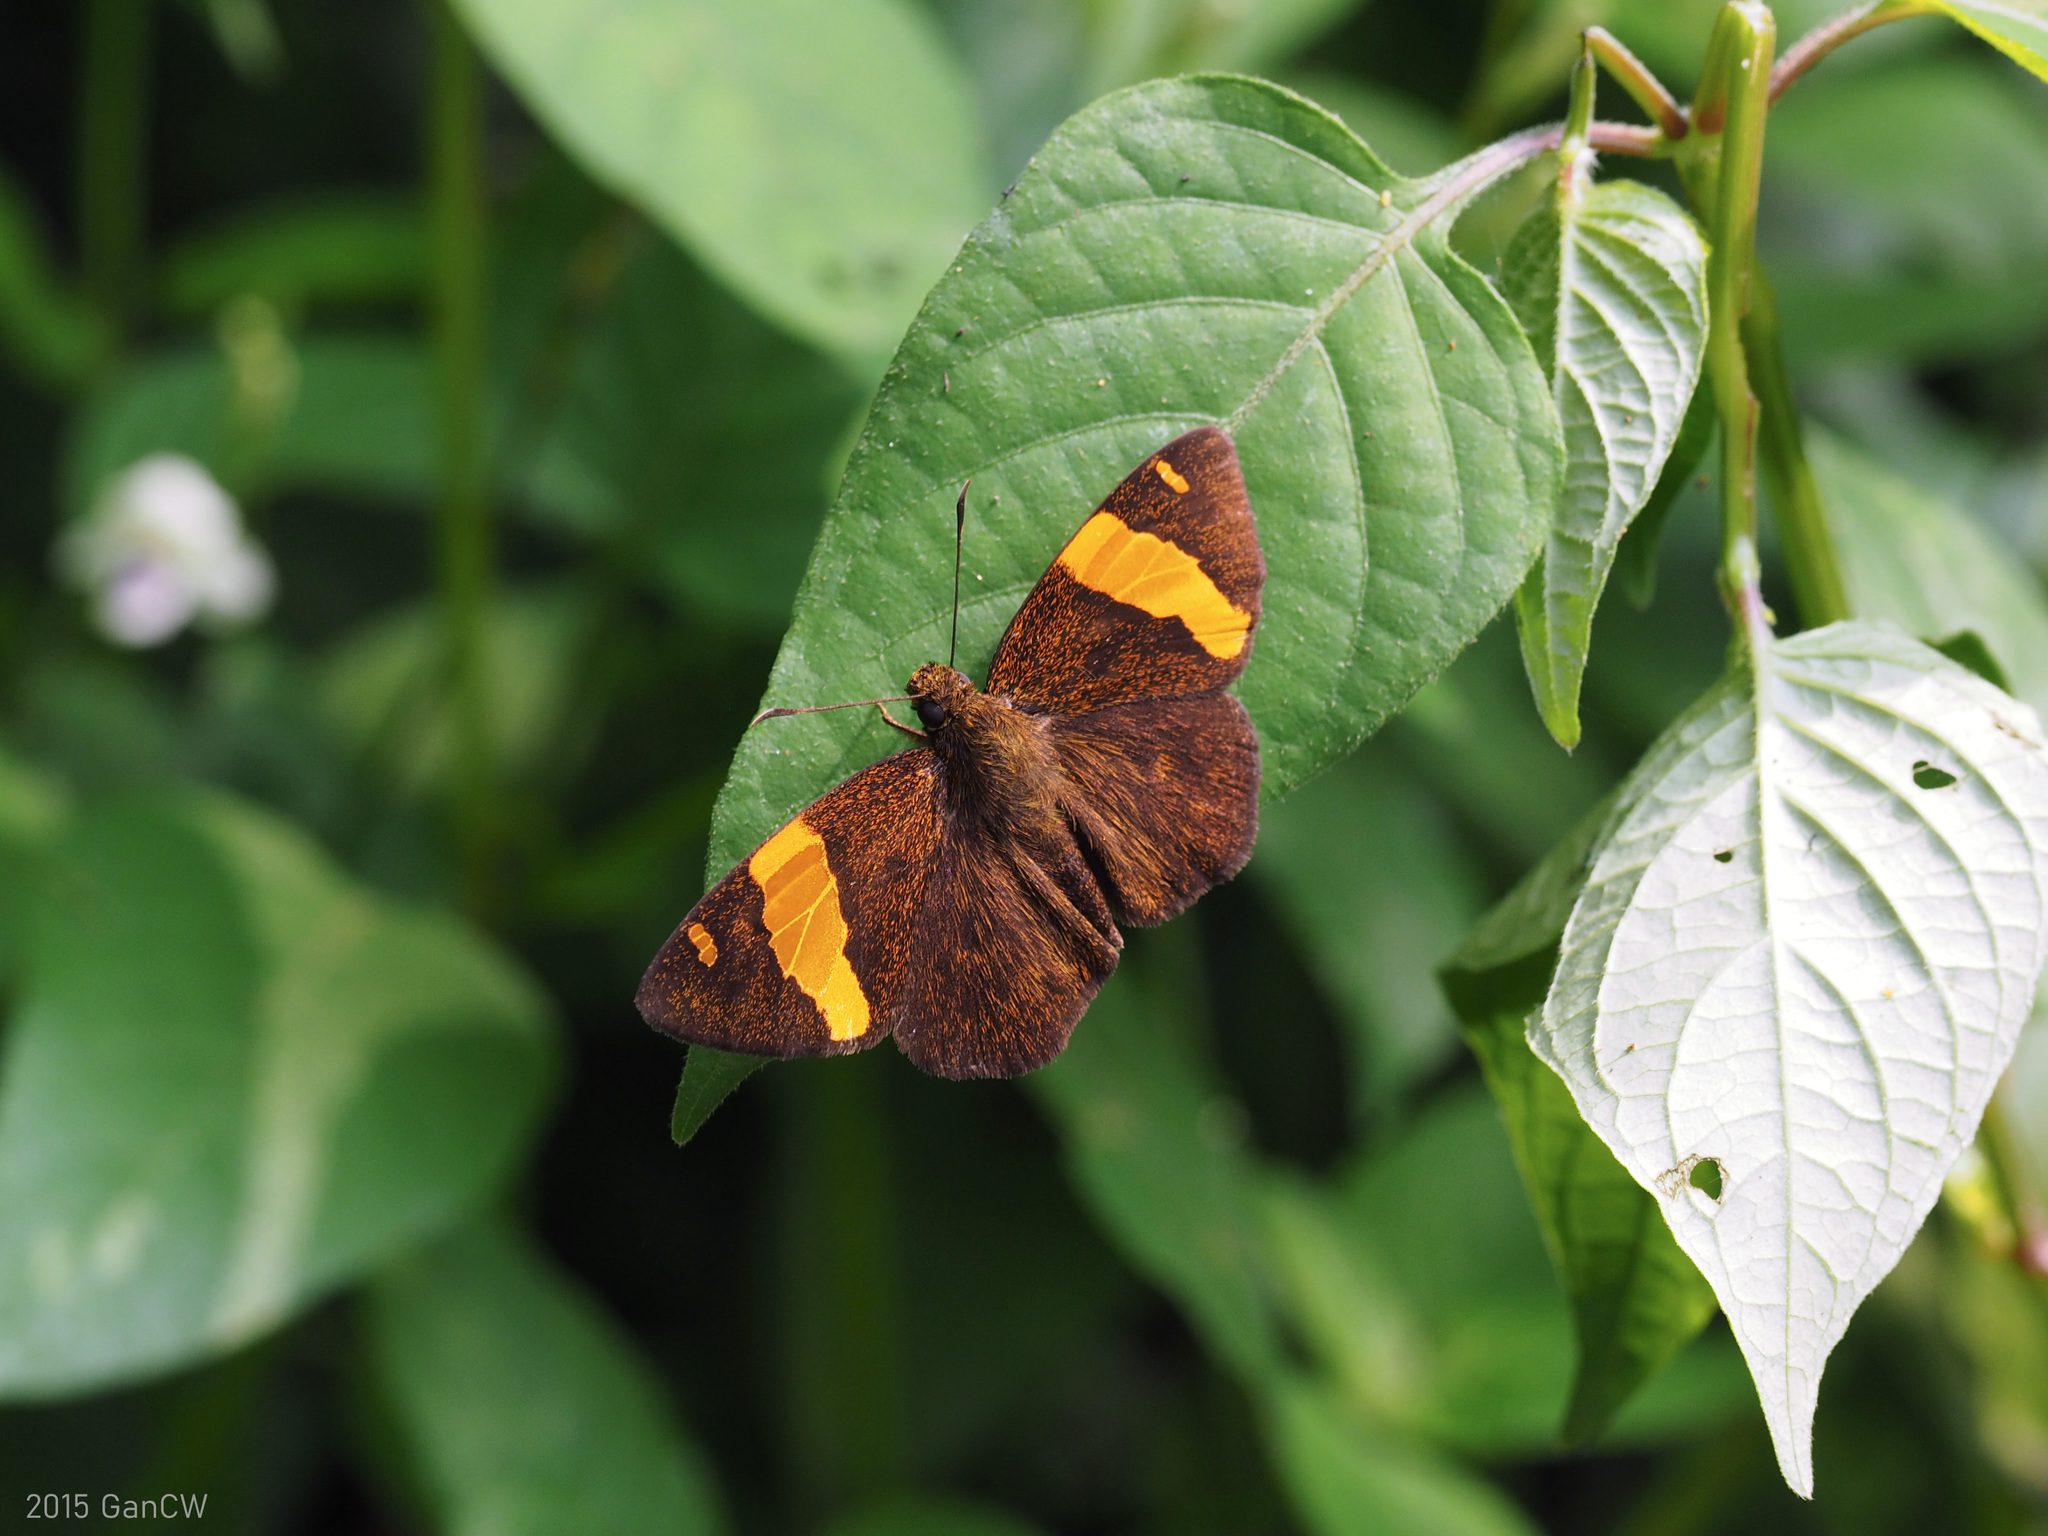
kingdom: Animalia
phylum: Arthropoda
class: Insecta
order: Lepidoptera
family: Hesperiidae
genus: Aurivittia
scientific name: Aurivittia
